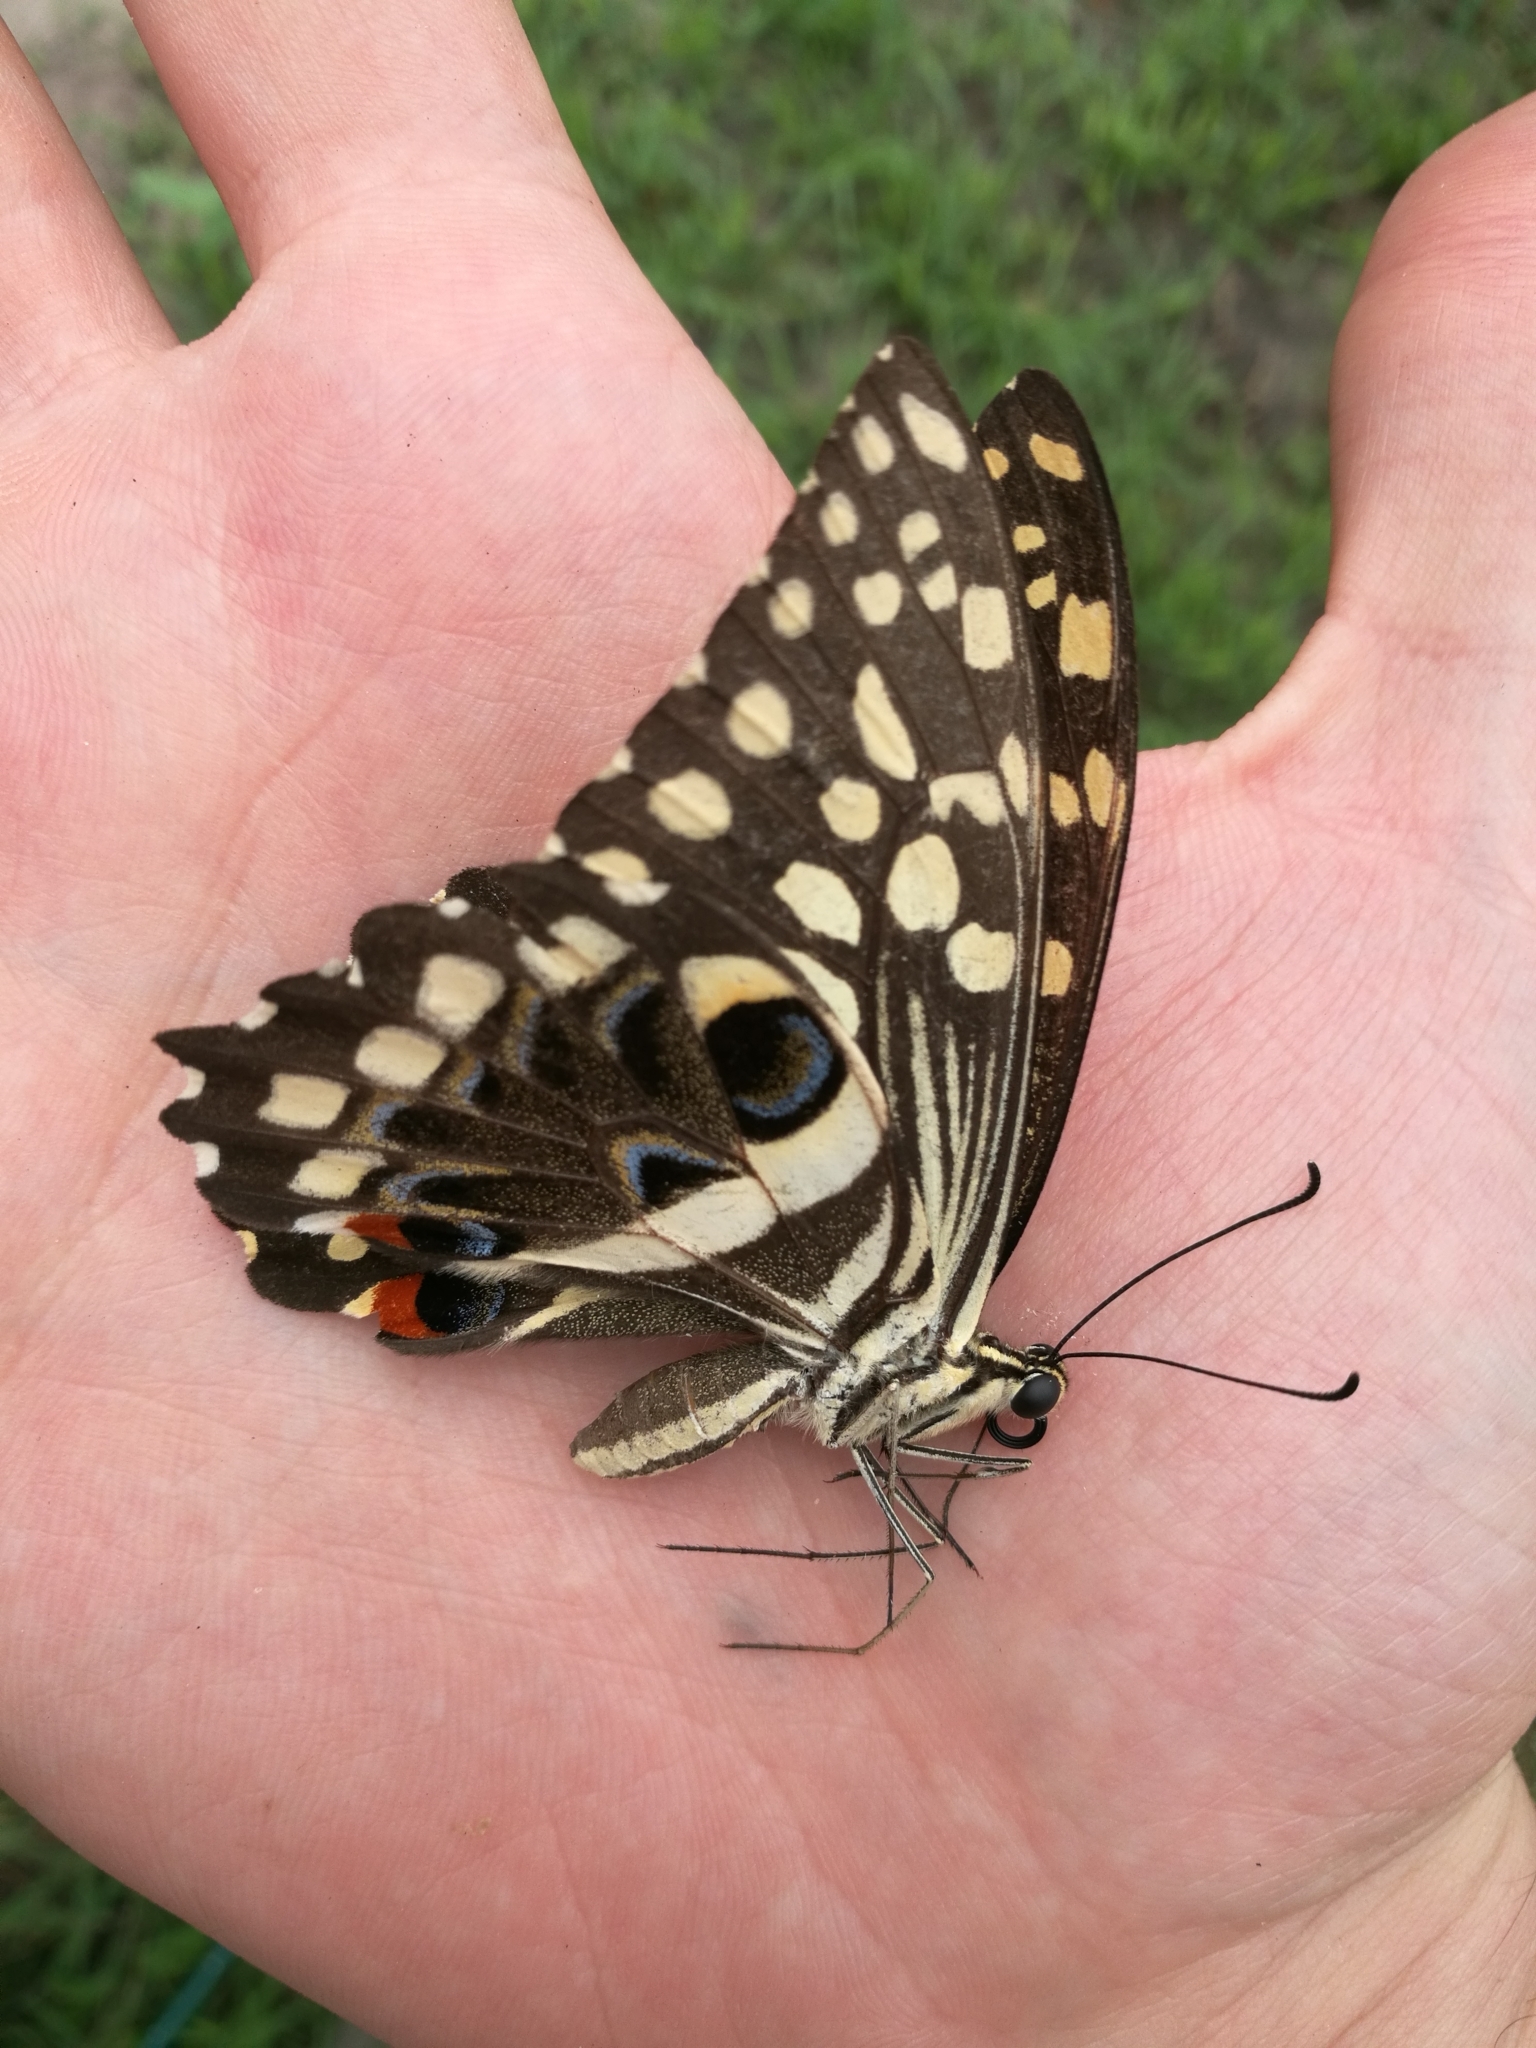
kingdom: Animalia
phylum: Arthropoda
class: Insecta
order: Lepidoptera
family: Papilionidae
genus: Papilio
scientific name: Papilio demodocus
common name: Christmas butterfly
